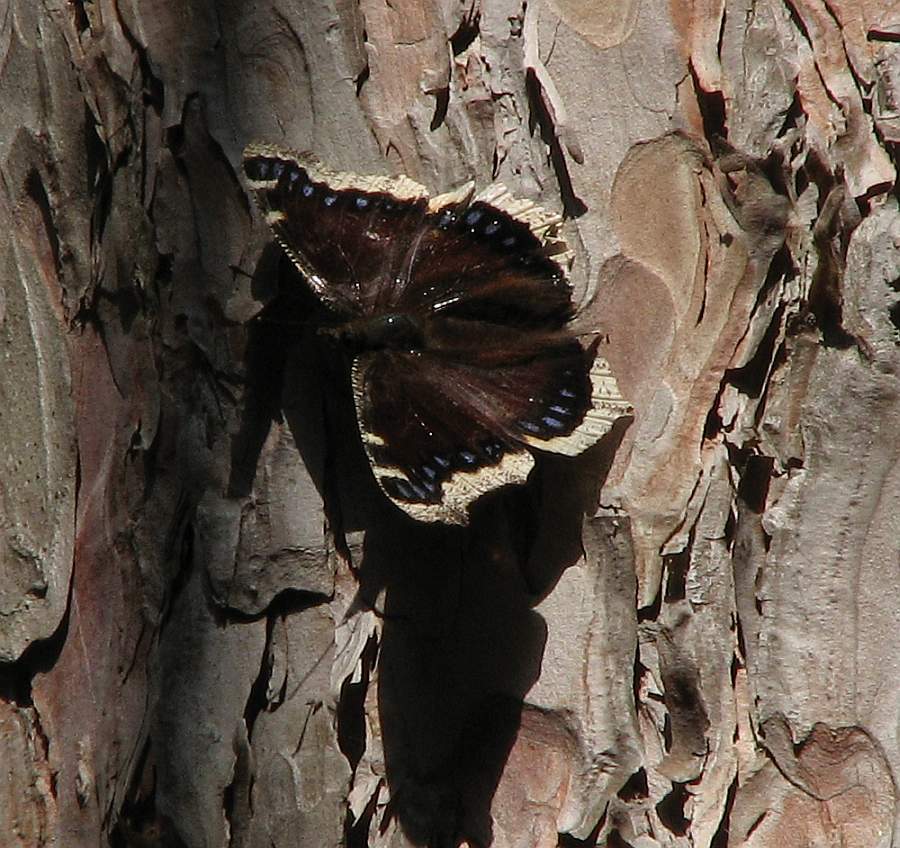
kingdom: Animalia
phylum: Arthropoda
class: Insecta
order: Lepidoptera
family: Nymphalidae
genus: Nymphalis
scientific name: Nymphalis antiopa
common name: Camberwell beauty
